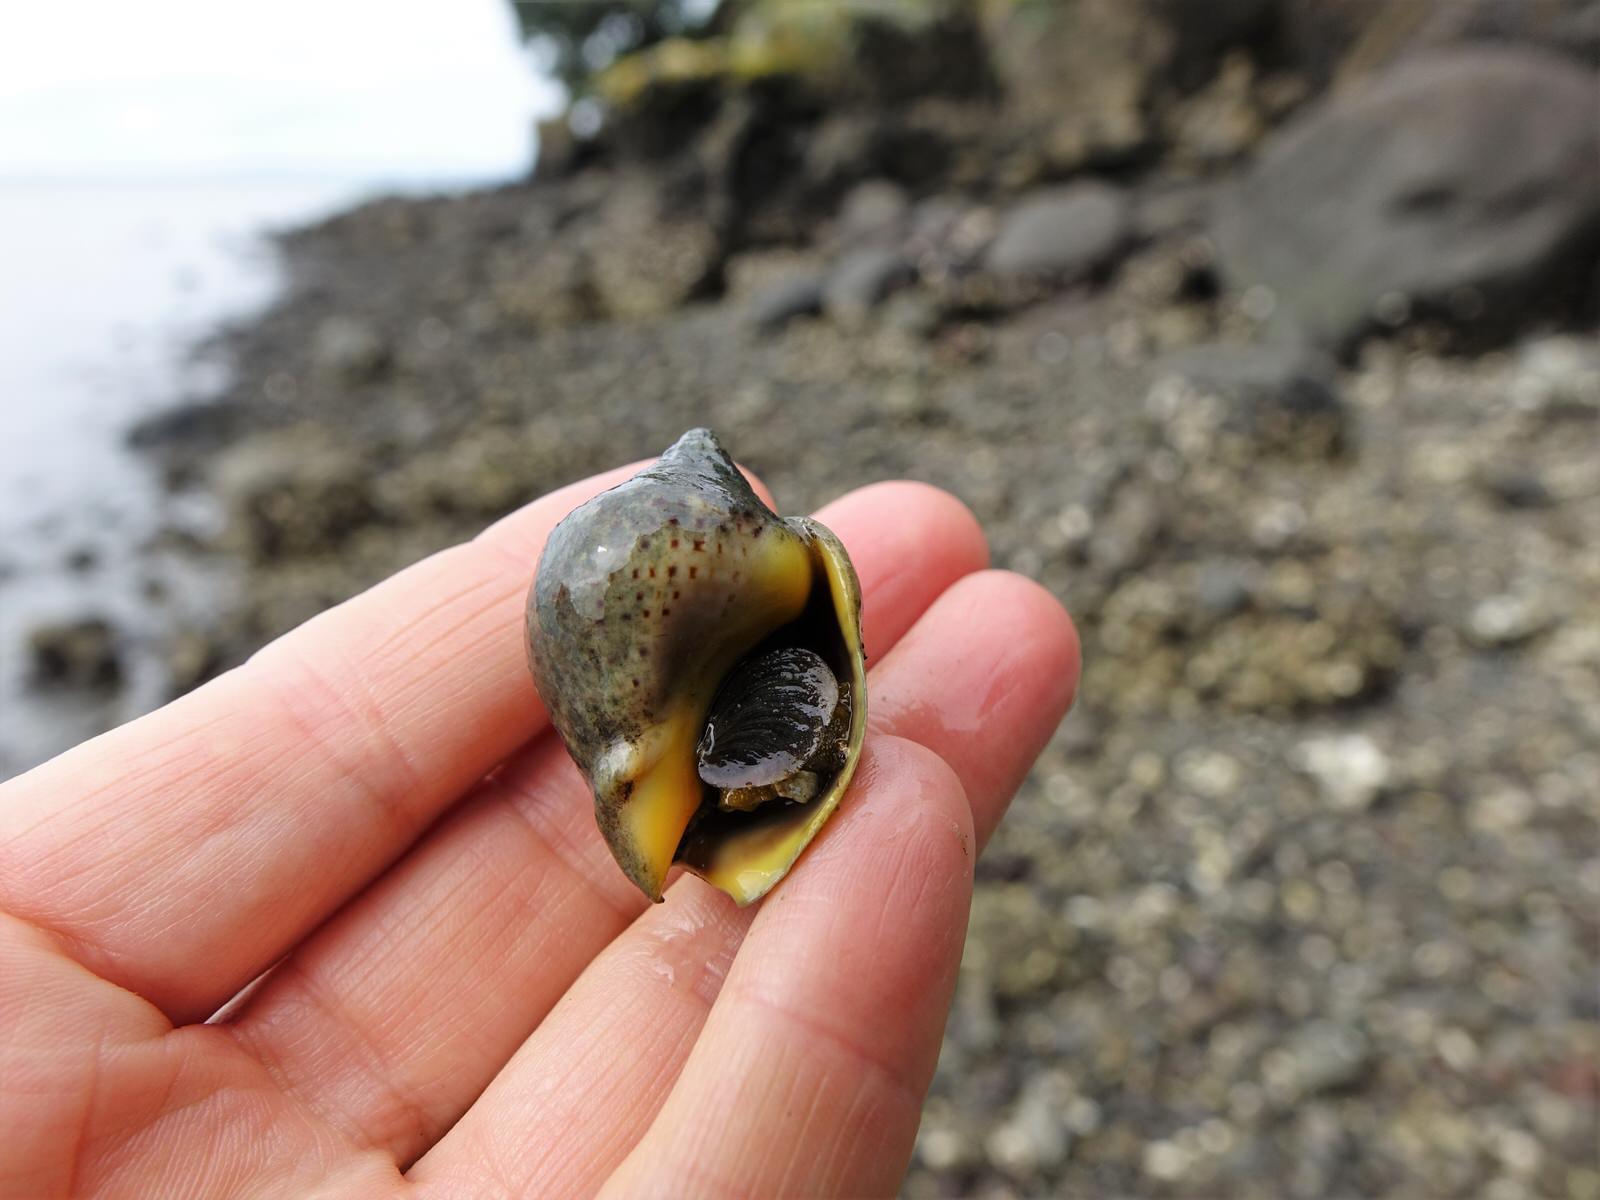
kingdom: Animalia
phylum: Mollusca
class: Gastropoda
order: Neogastropoda
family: Cominellidae
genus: Cominella
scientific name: Cominella adspersa
